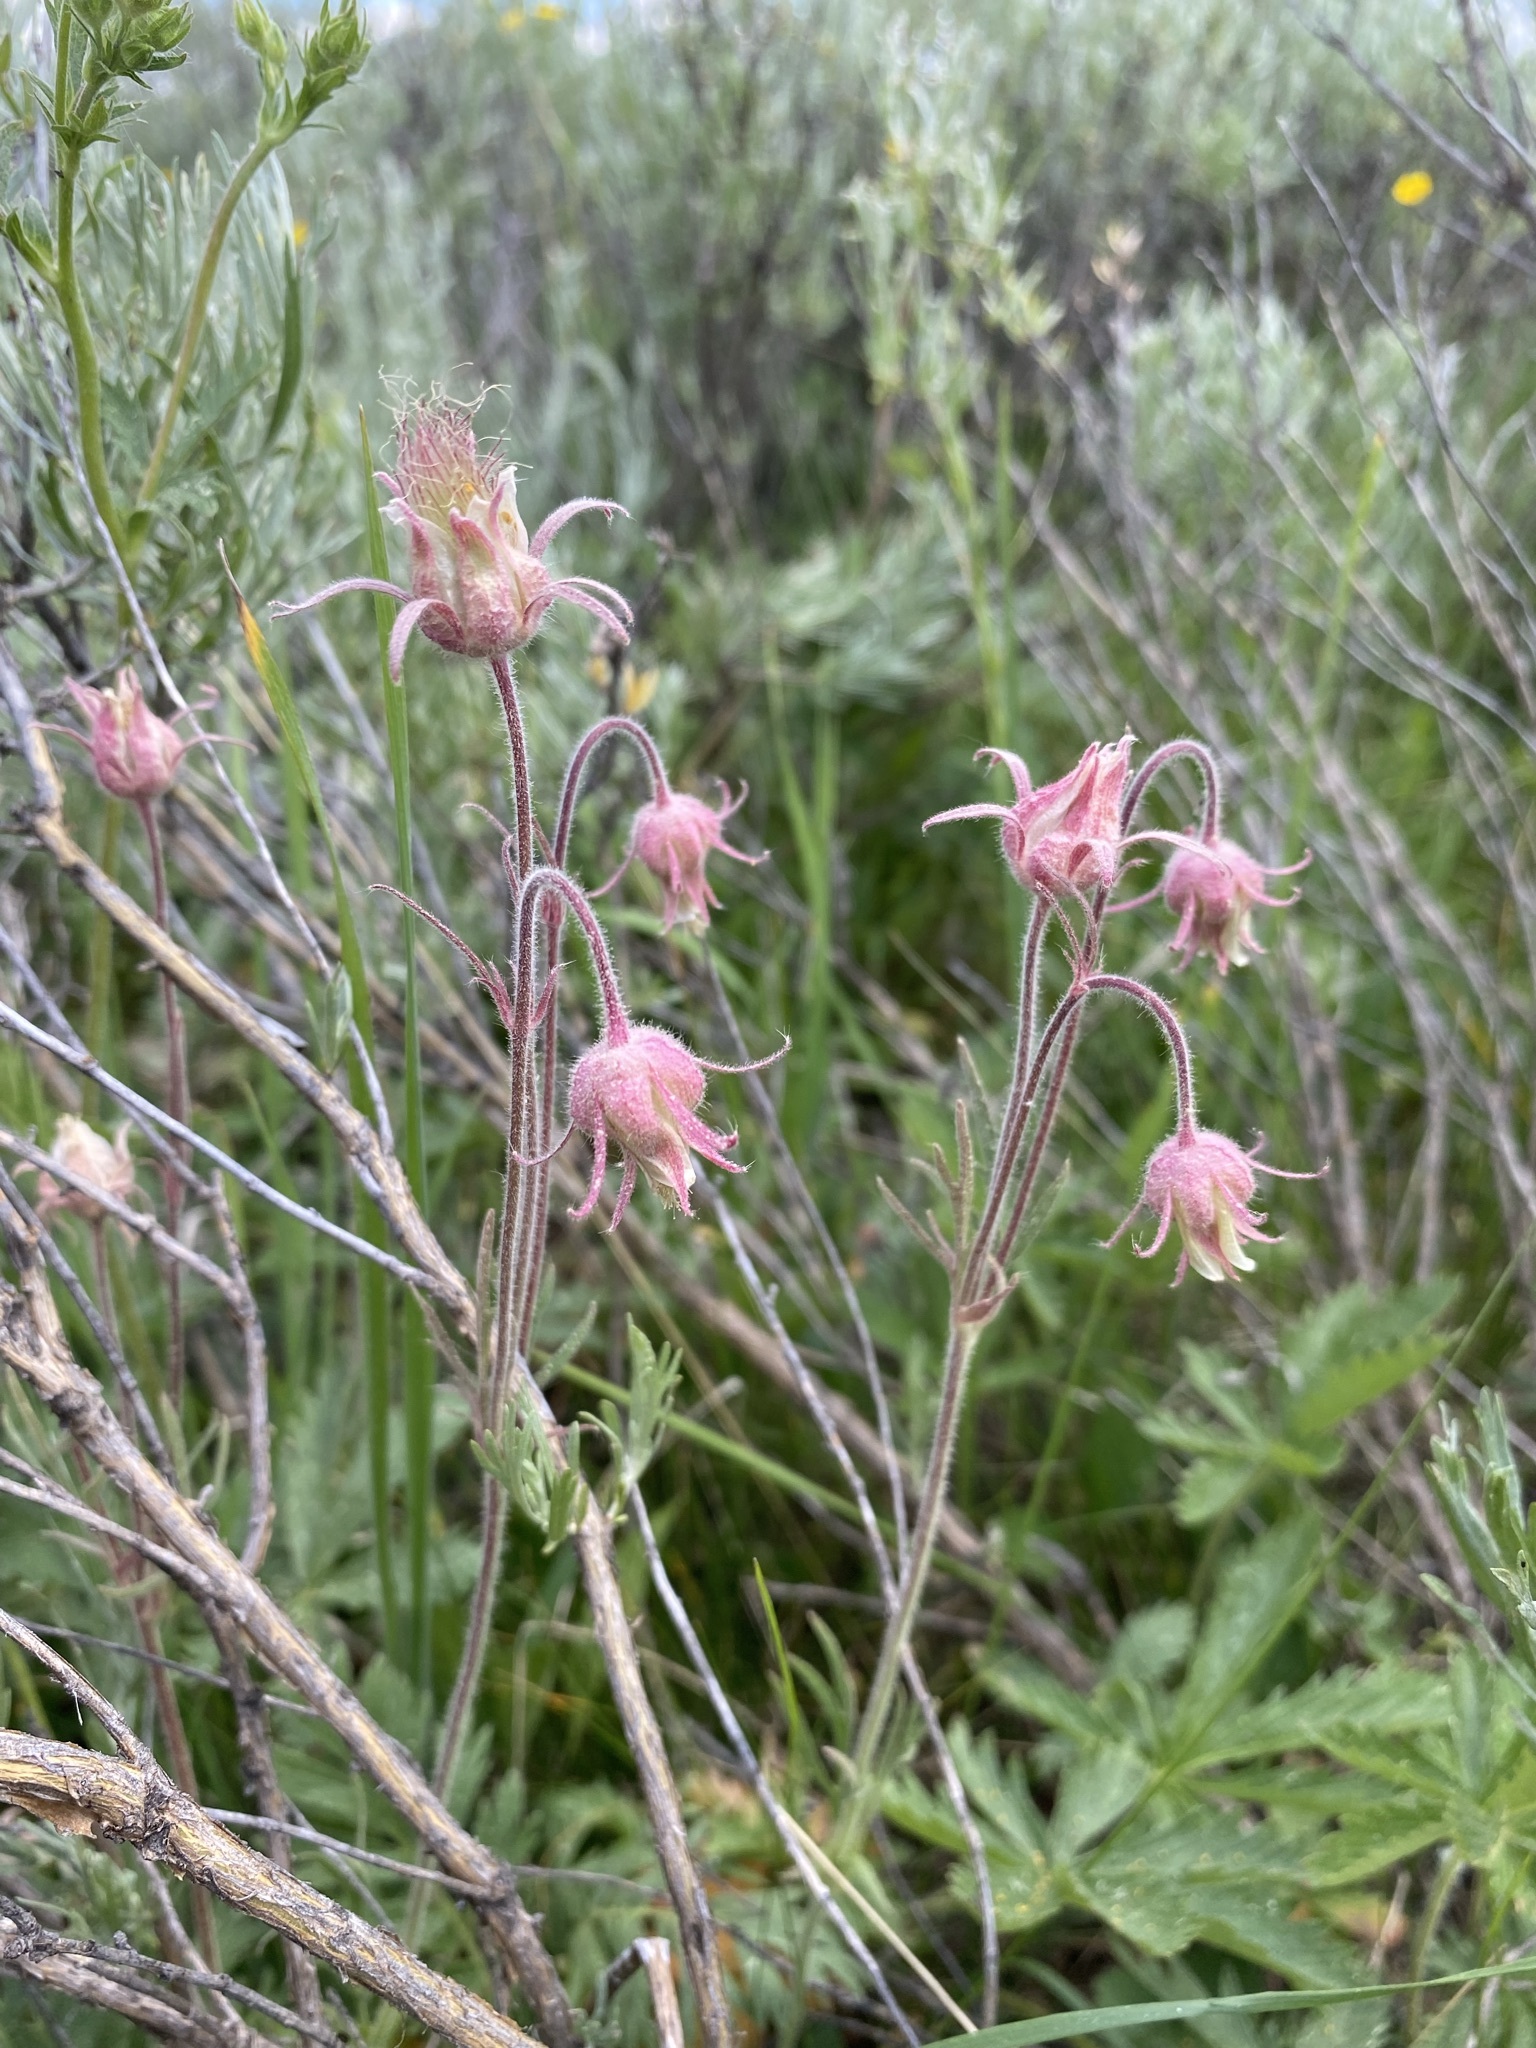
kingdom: Plantae
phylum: Tracheophyta
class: Magnoliopsida
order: Rosales
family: Rosaceae
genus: Geum
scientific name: Geum triflorum
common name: Old man's whiskers
